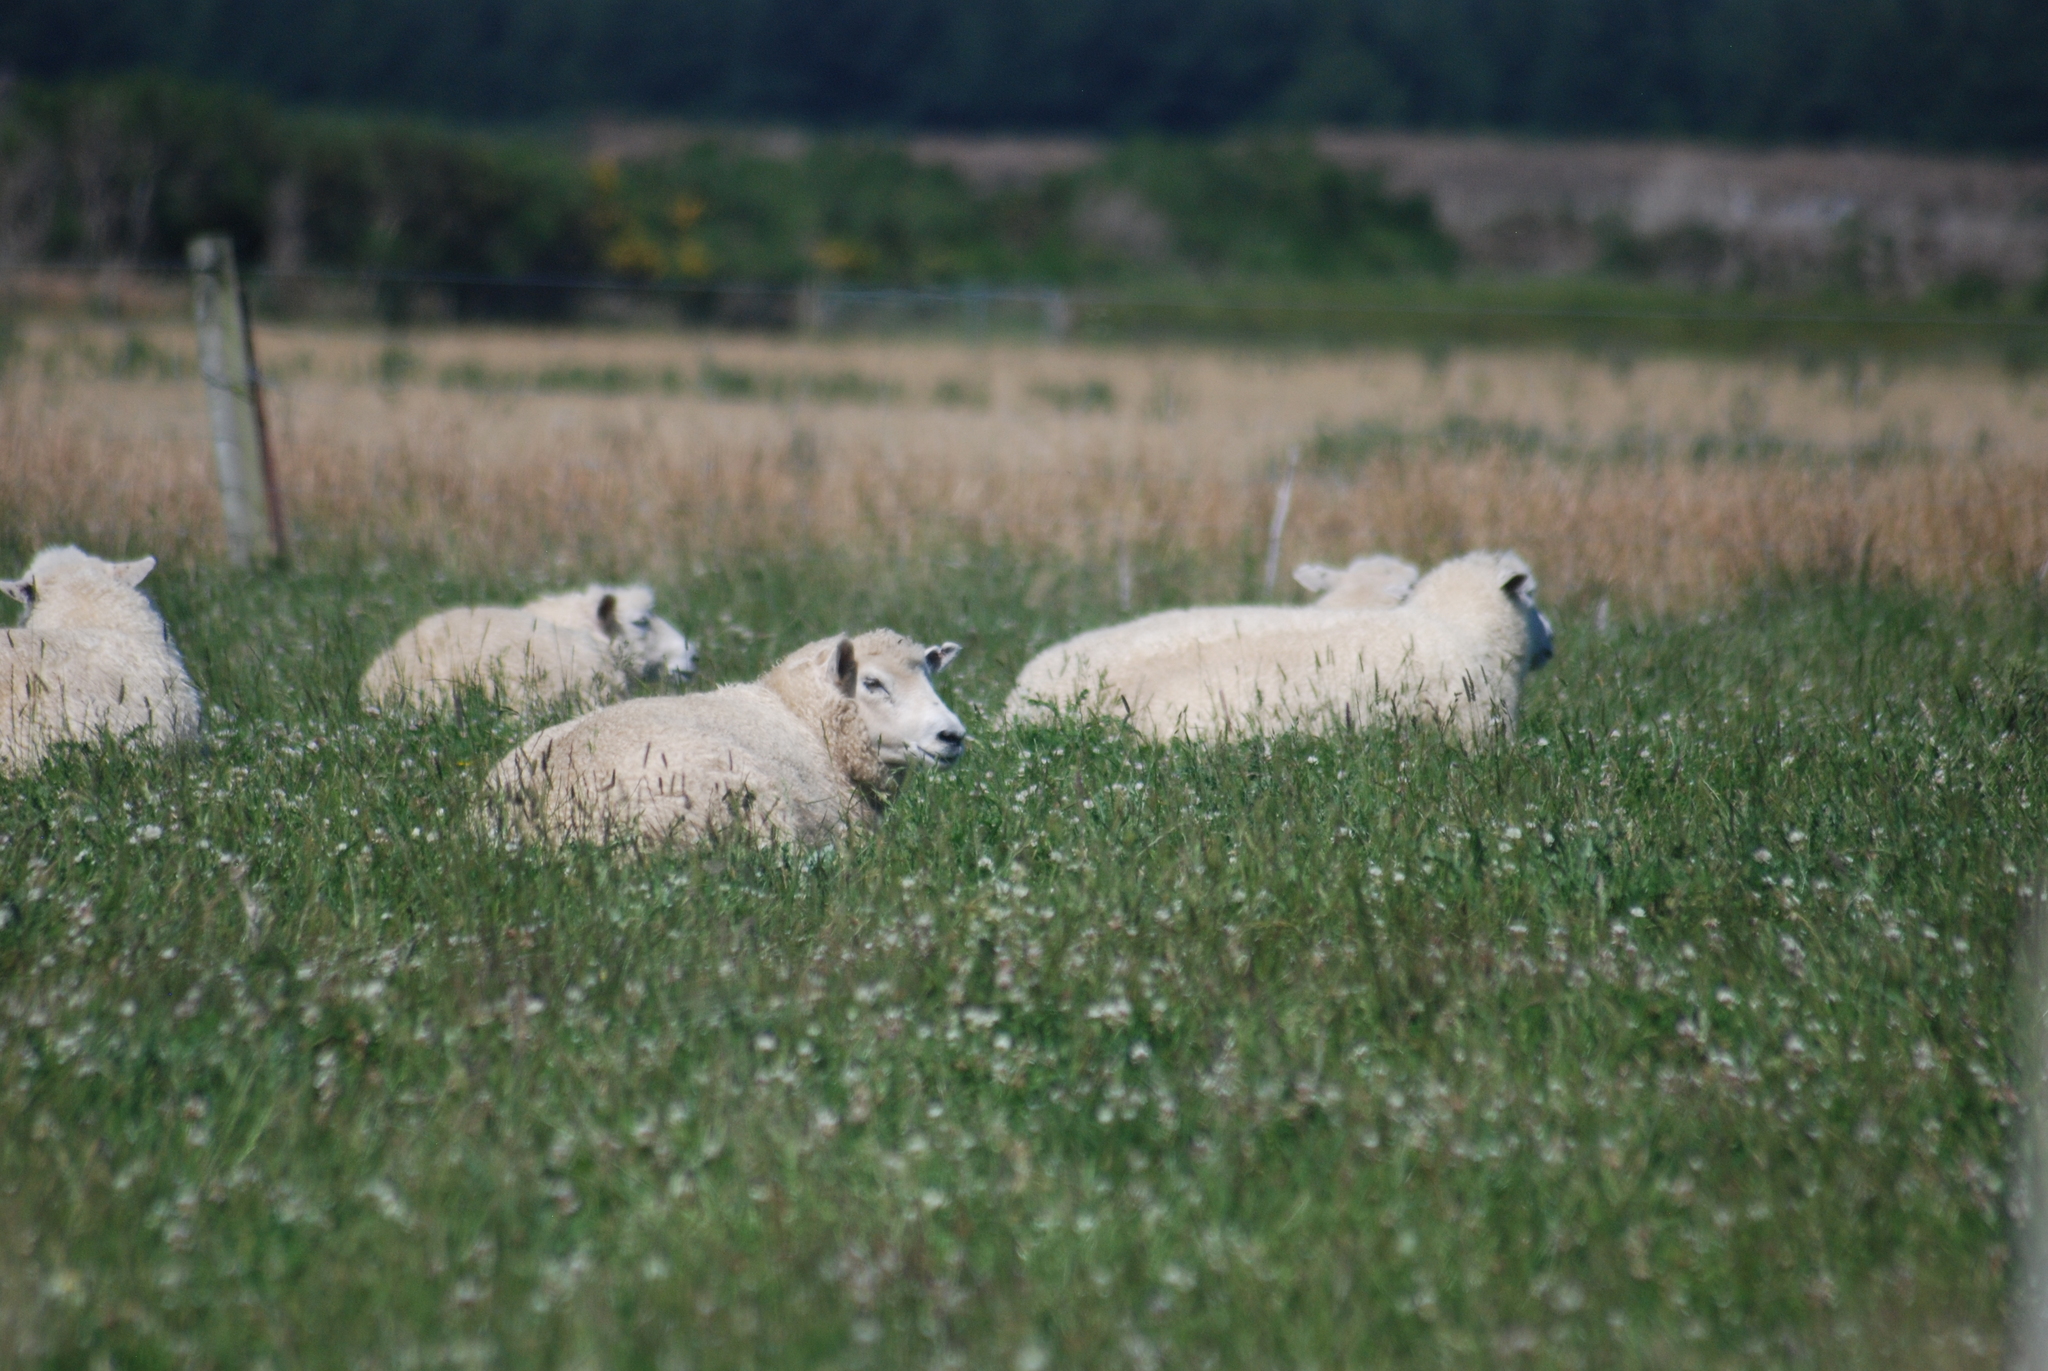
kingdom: Plantae
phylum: Tracheophyta
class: Magnoliopsida
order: Fabales
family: Fabaceae
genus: Trifolium
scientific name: Trifolium repens
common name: White clover
